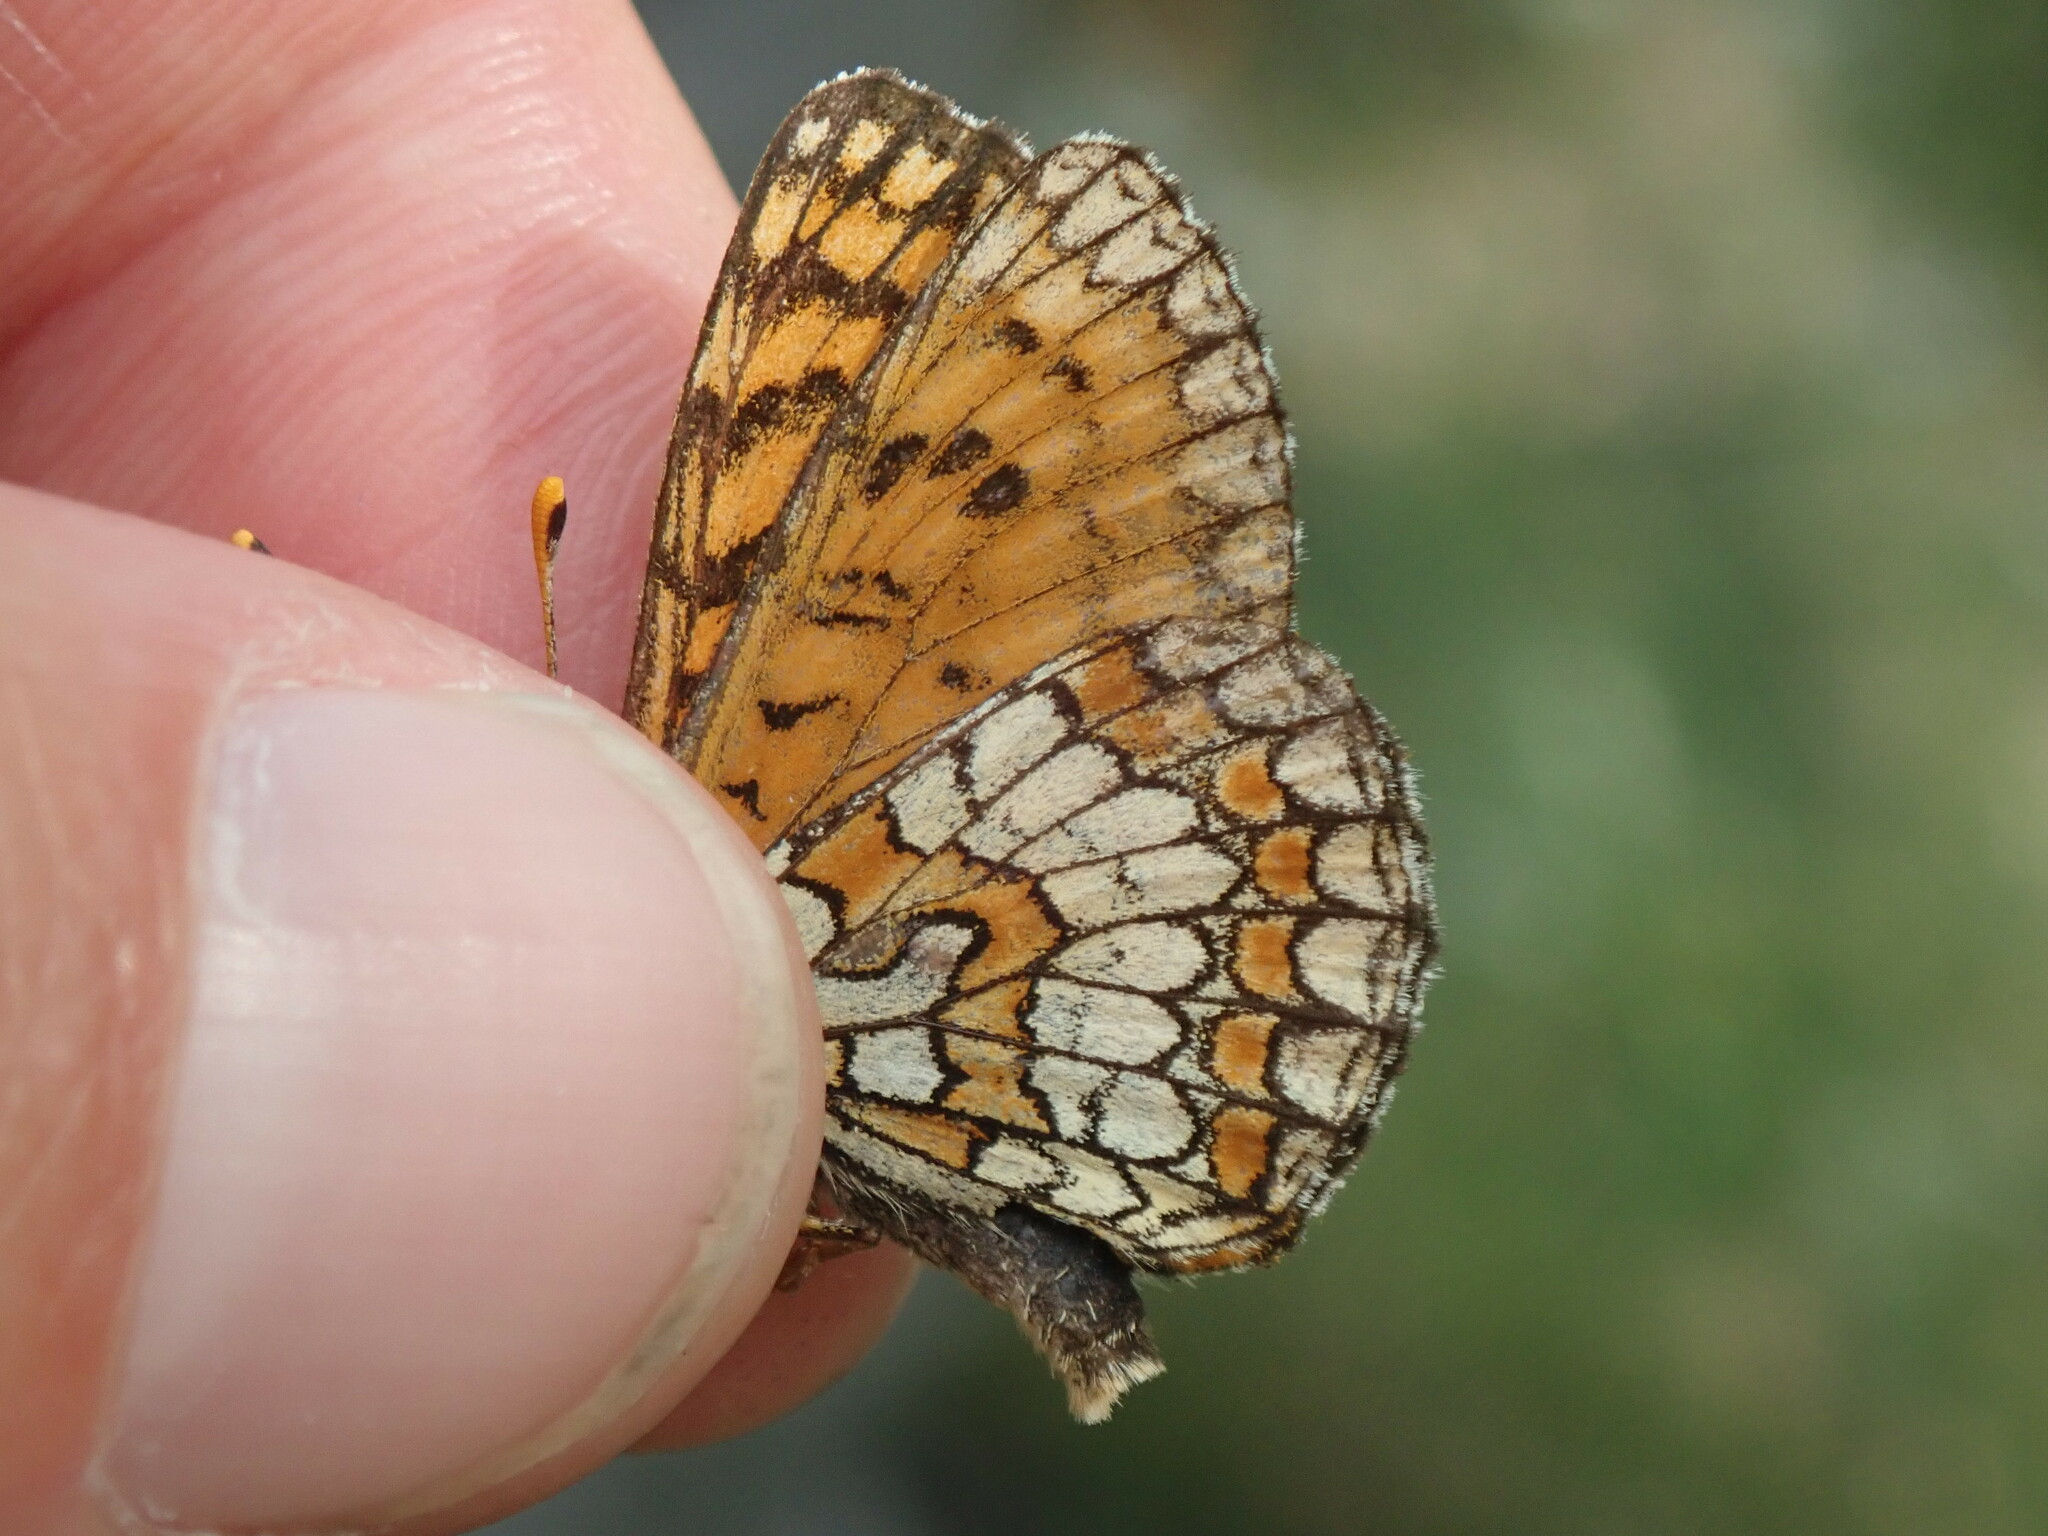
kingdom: Animalia
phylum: Arthropoda
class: Insecta
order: Lepidoptera
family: Nymphalidae
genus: Mellicta
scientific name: Mellicta athalia
